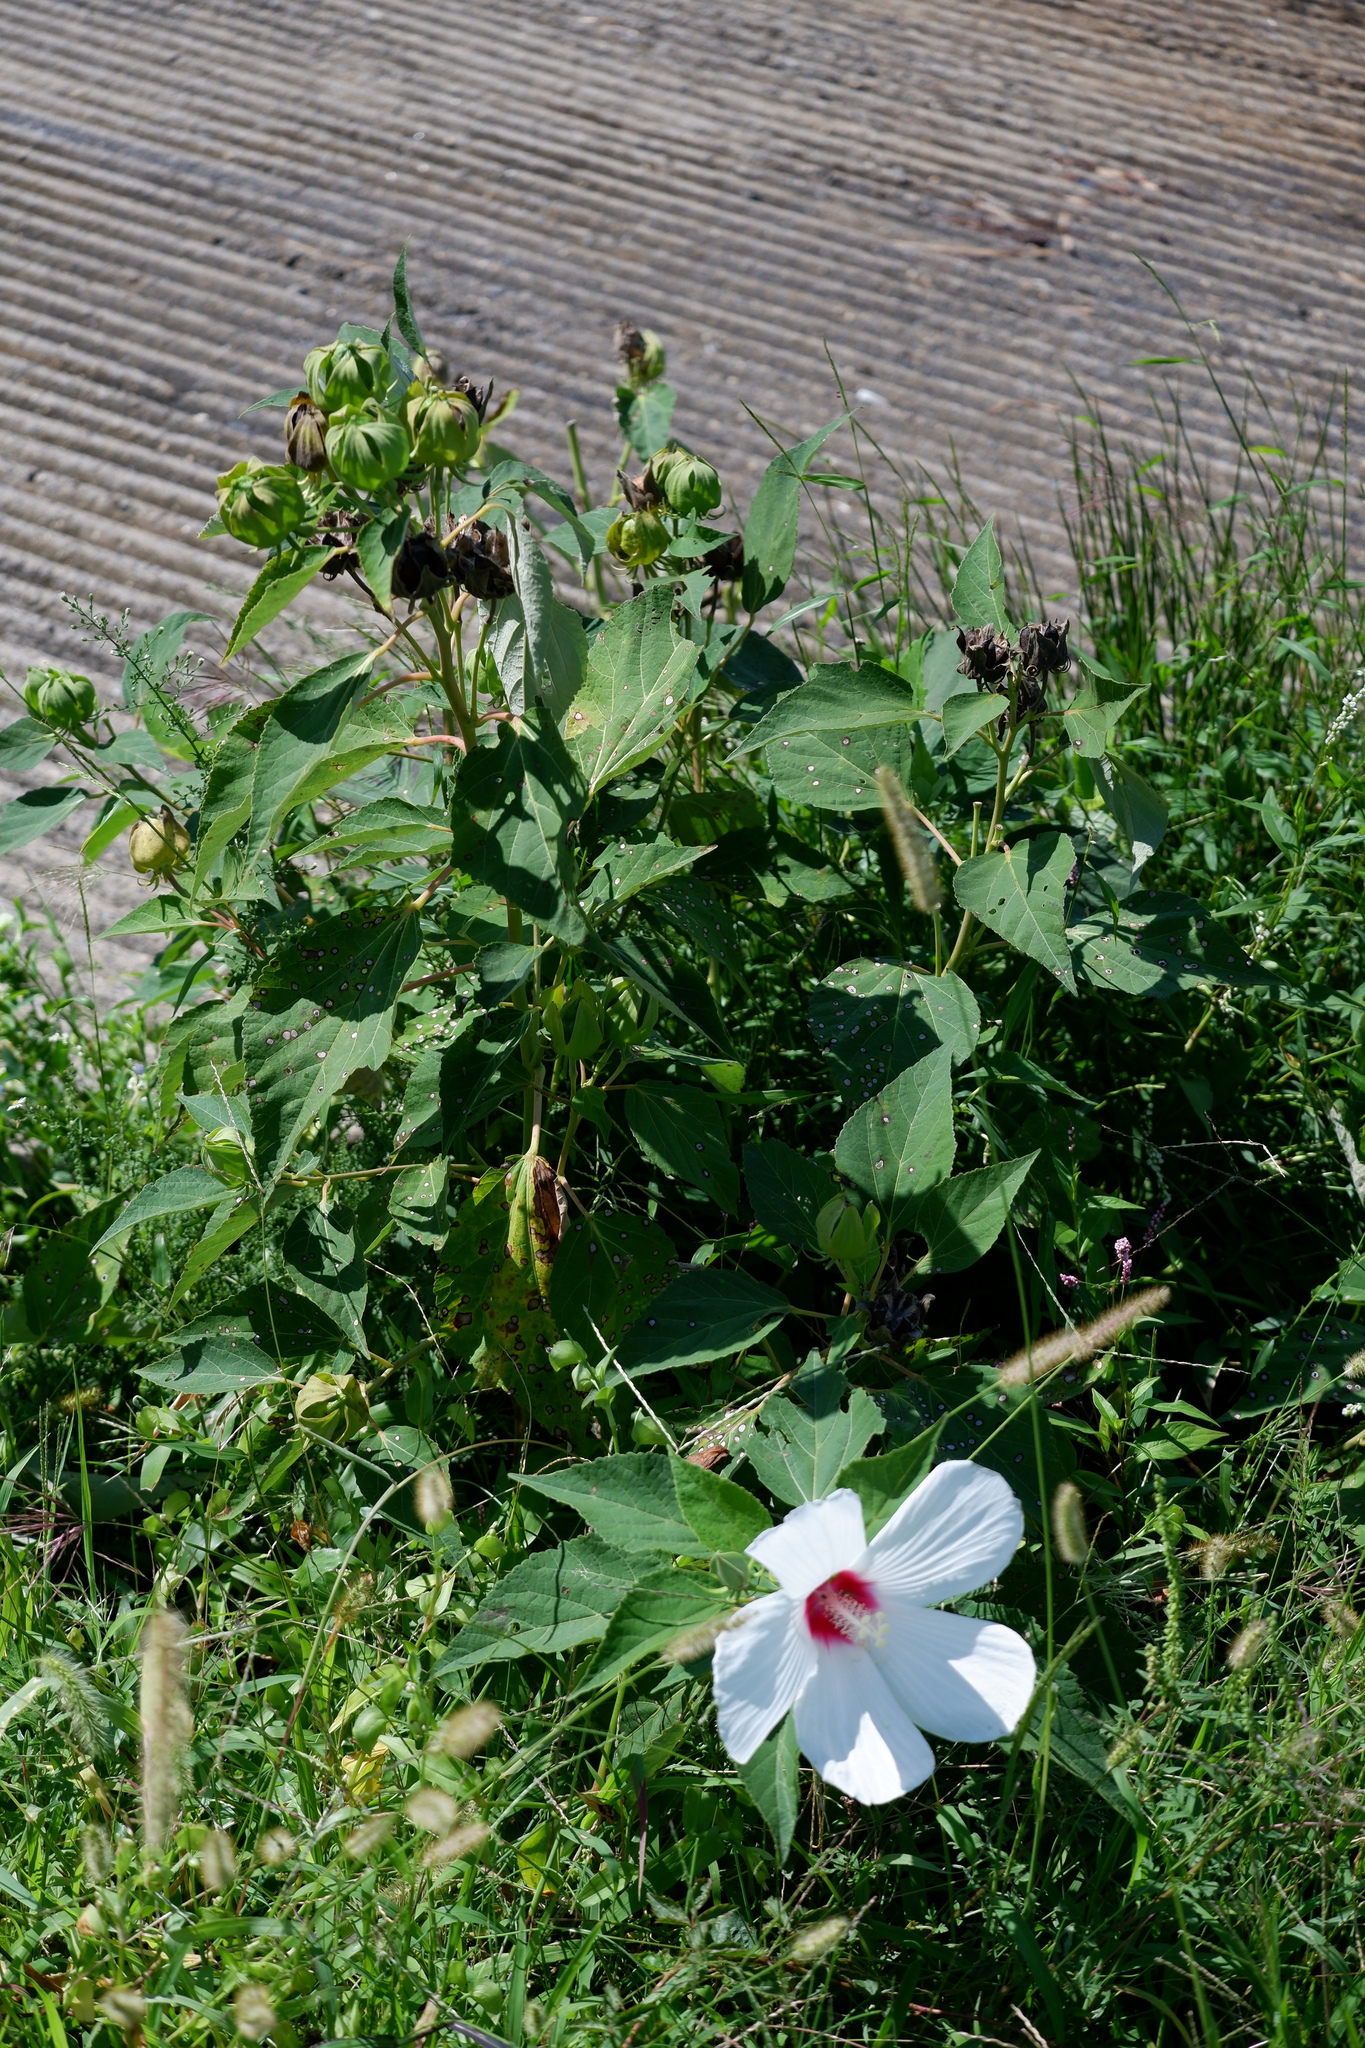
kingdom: Plantae
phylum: Tracheophyta
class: Magnoliopsida
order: Malvales
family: Malvaceae
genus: Hibiscus
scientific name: Hibiscus moscheutos
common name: Common rose-mallow
